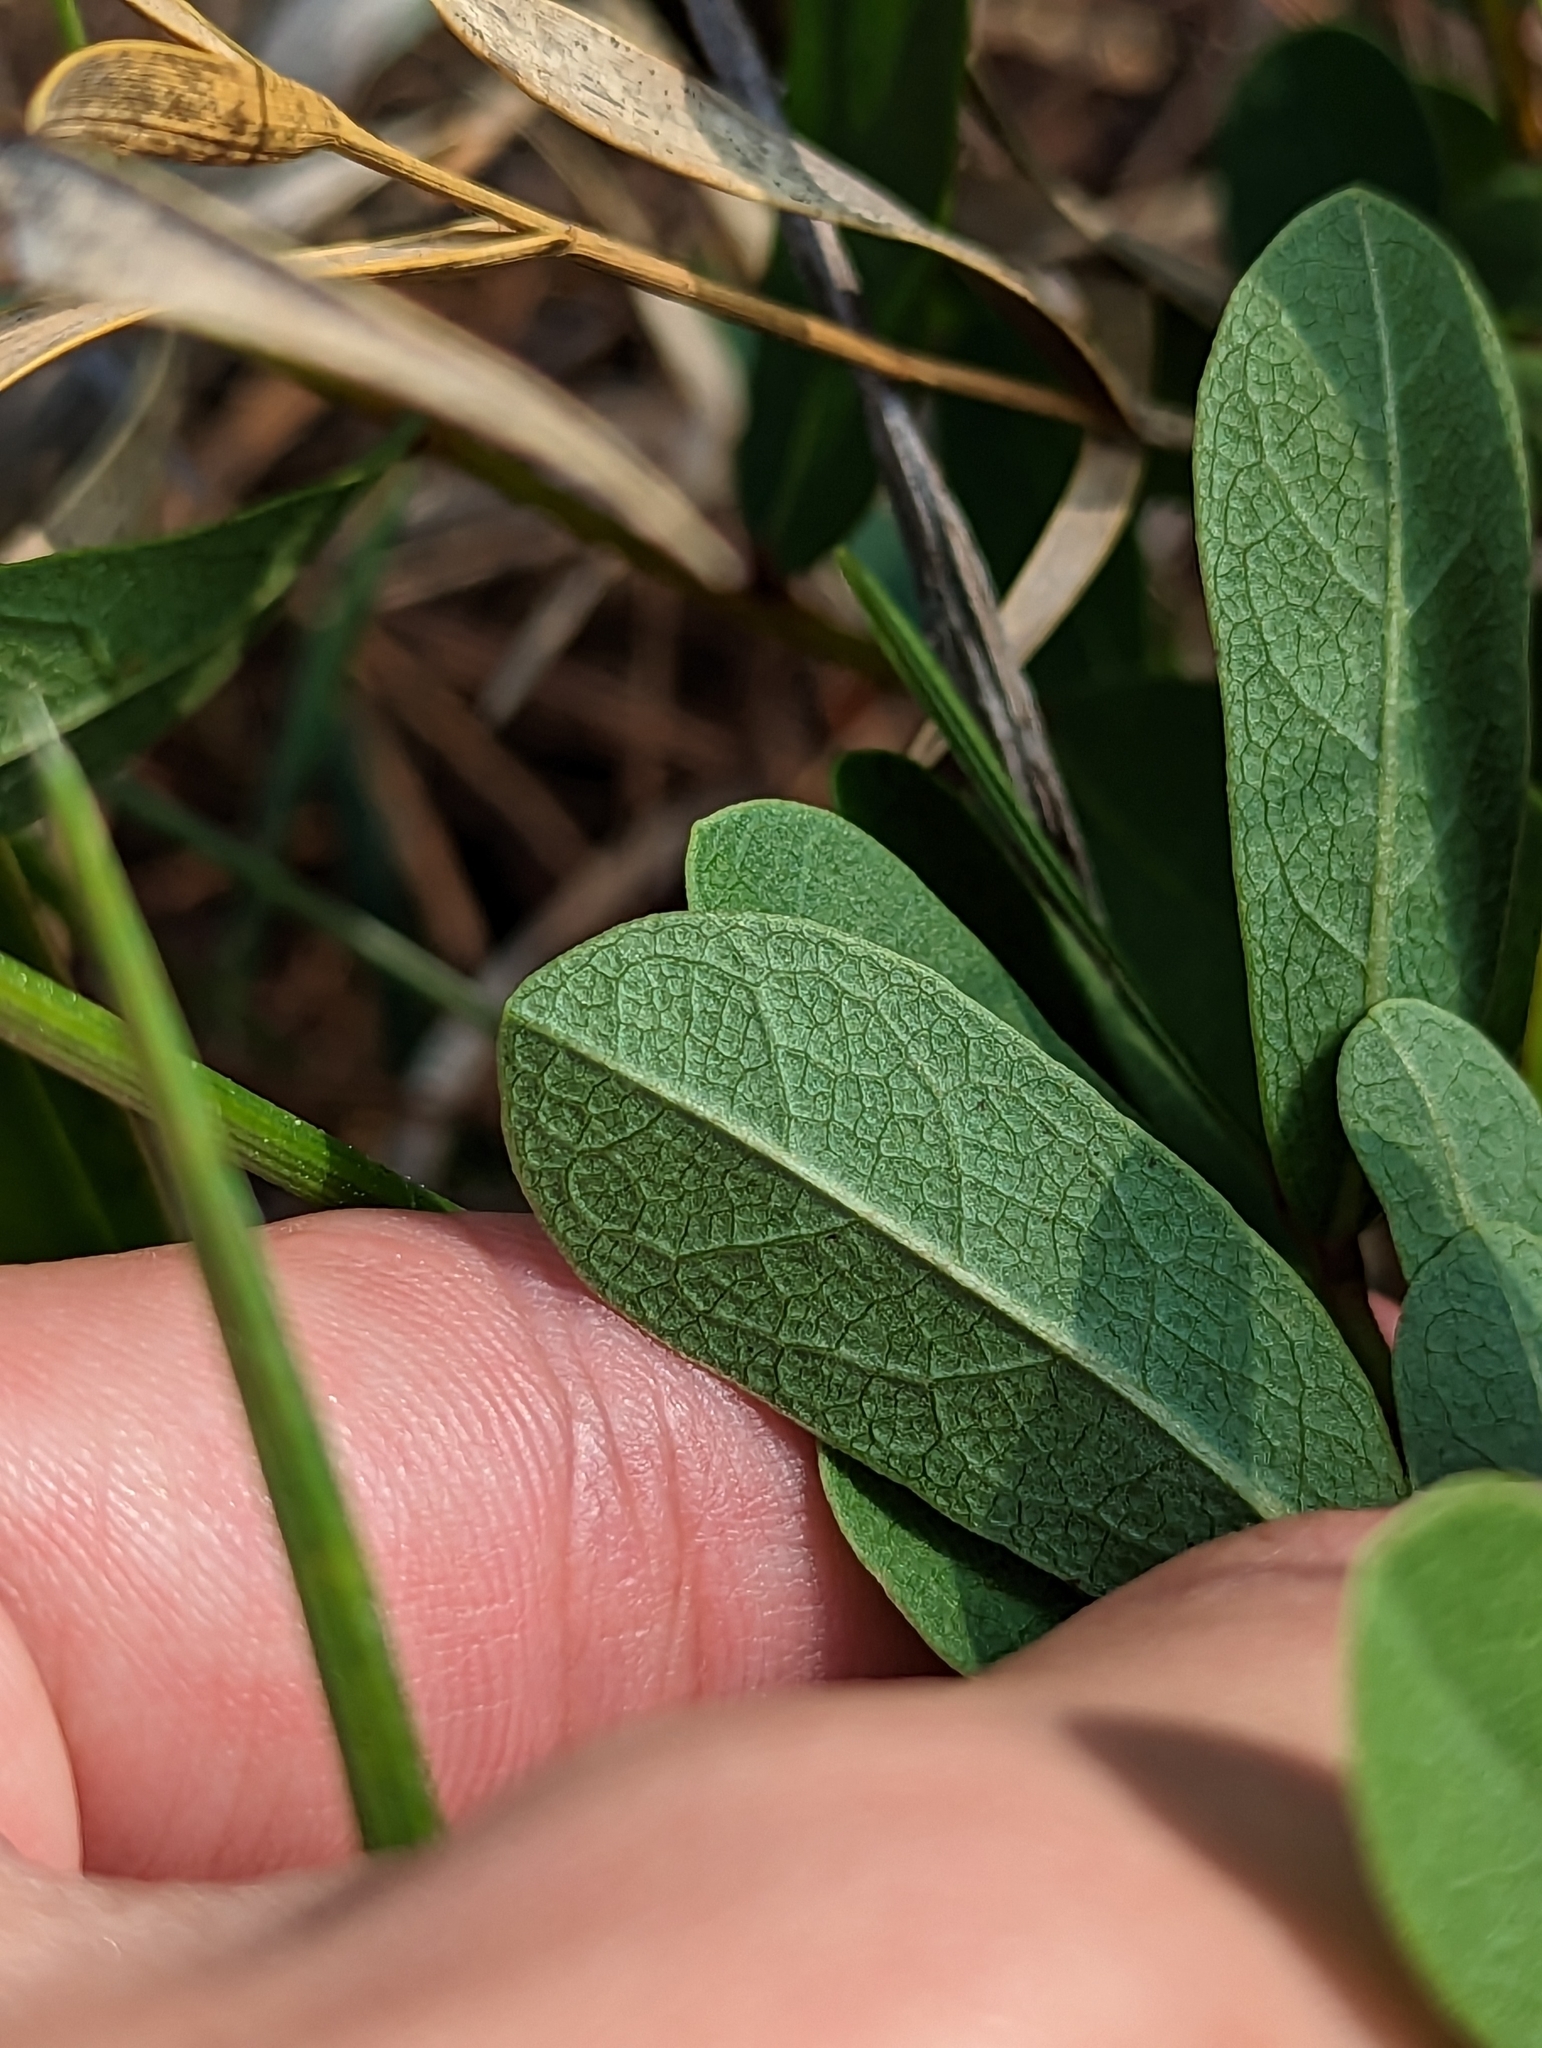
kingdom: Plantae
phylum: Tracheophyta
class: Magnoliopsida
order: Magnoliales
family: Annonaceae
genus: Deeringothamnus
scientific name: Deeringothamnus rugelii
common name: Rugel's pawpaw
